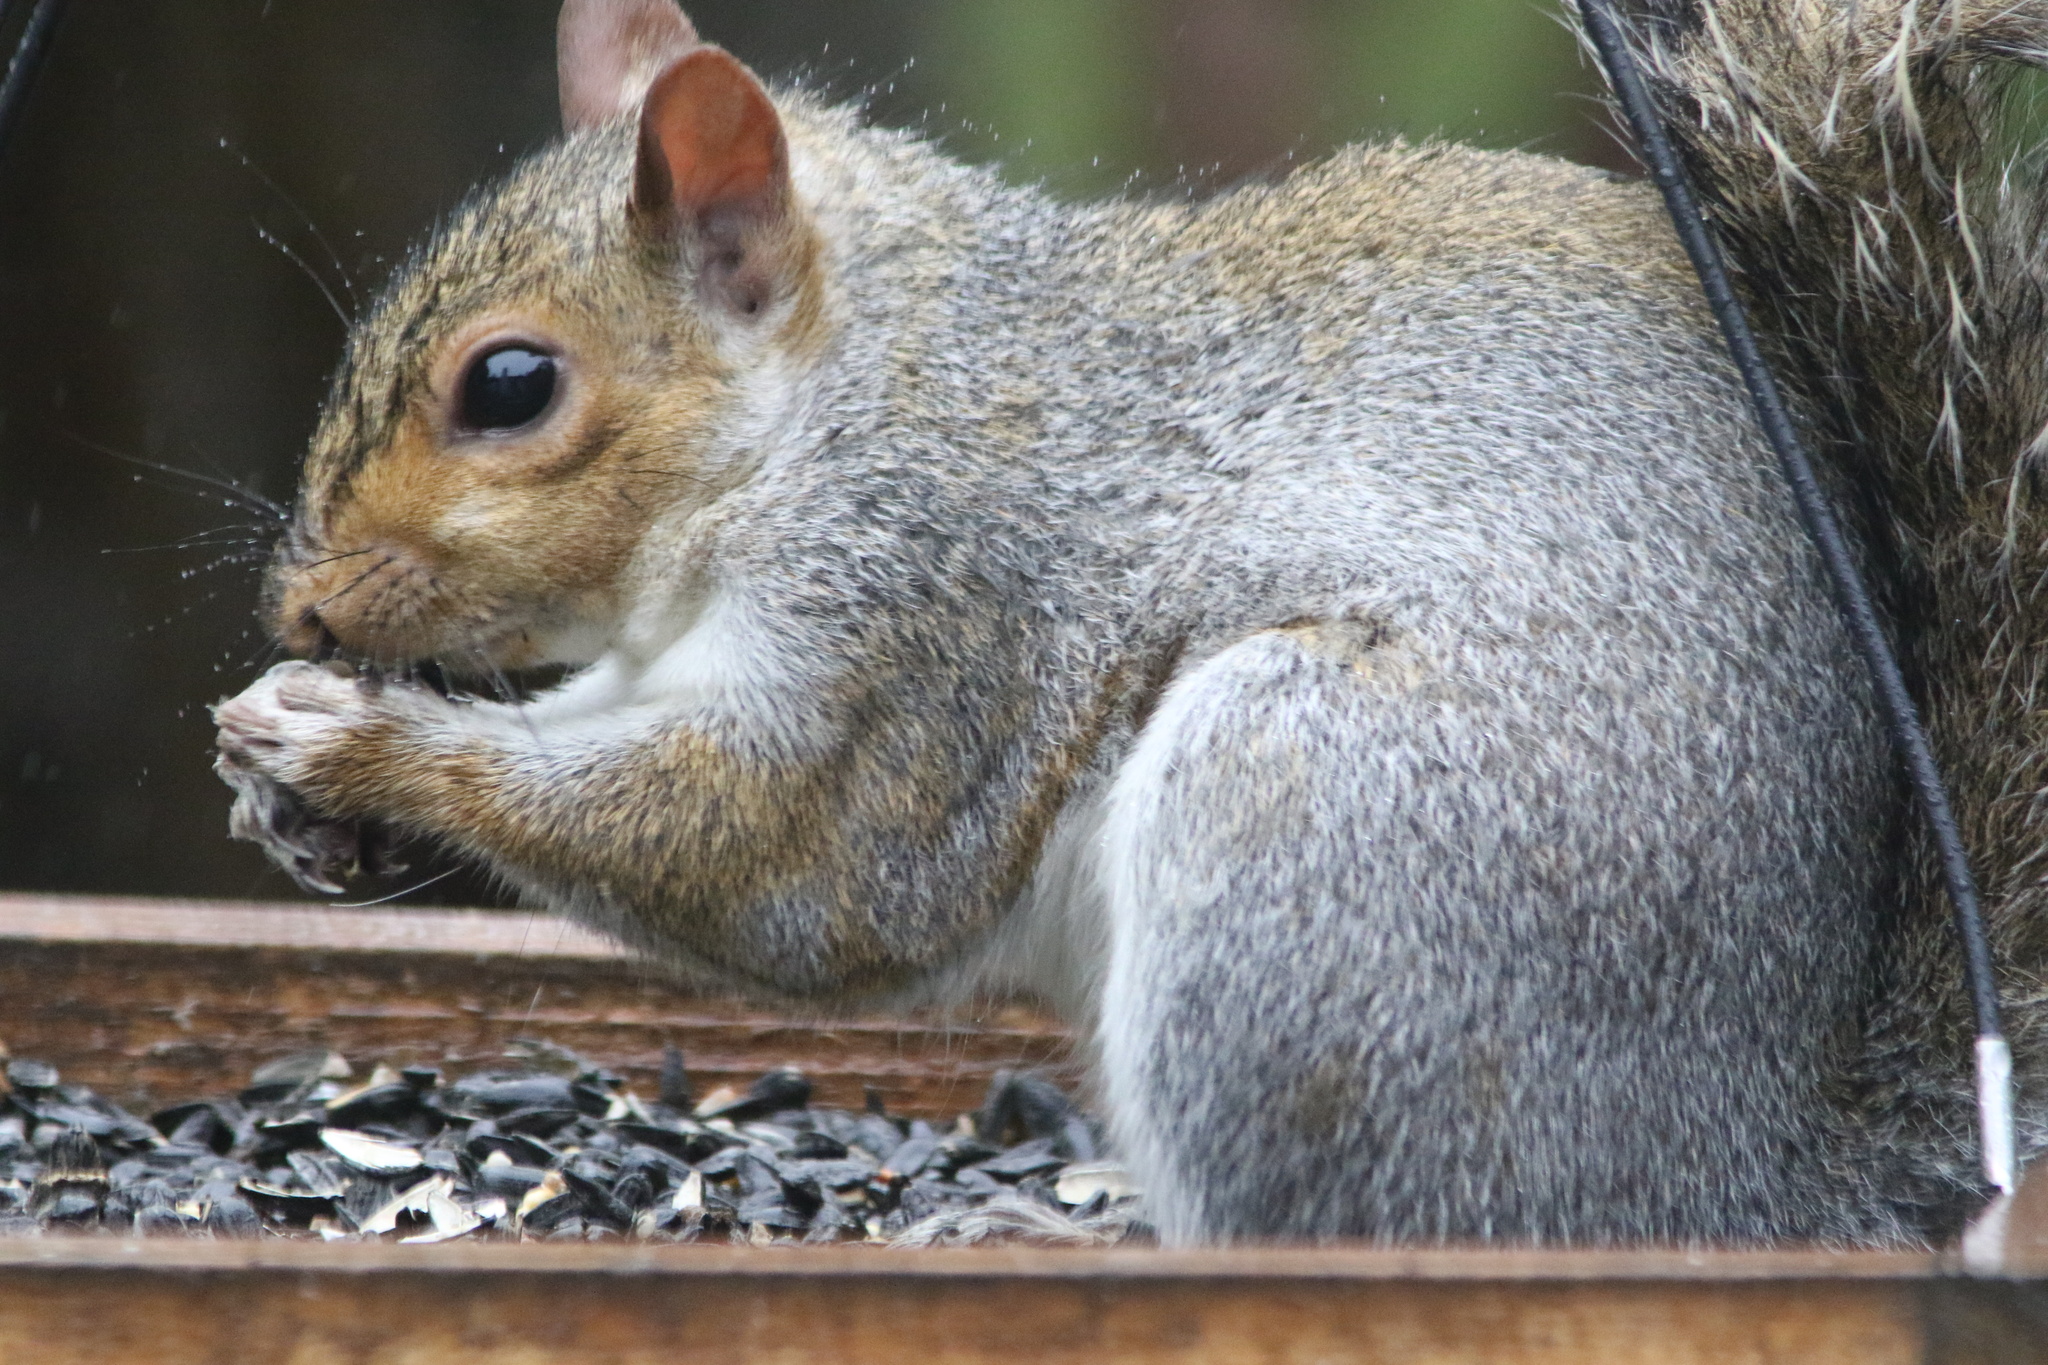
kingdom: Animalia
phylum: Chordata
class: Mammalia
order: Rodentia
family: Sciuridae
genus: Sciurus
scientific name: Sciurus carolinensis
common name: Eastern gray squirrel
